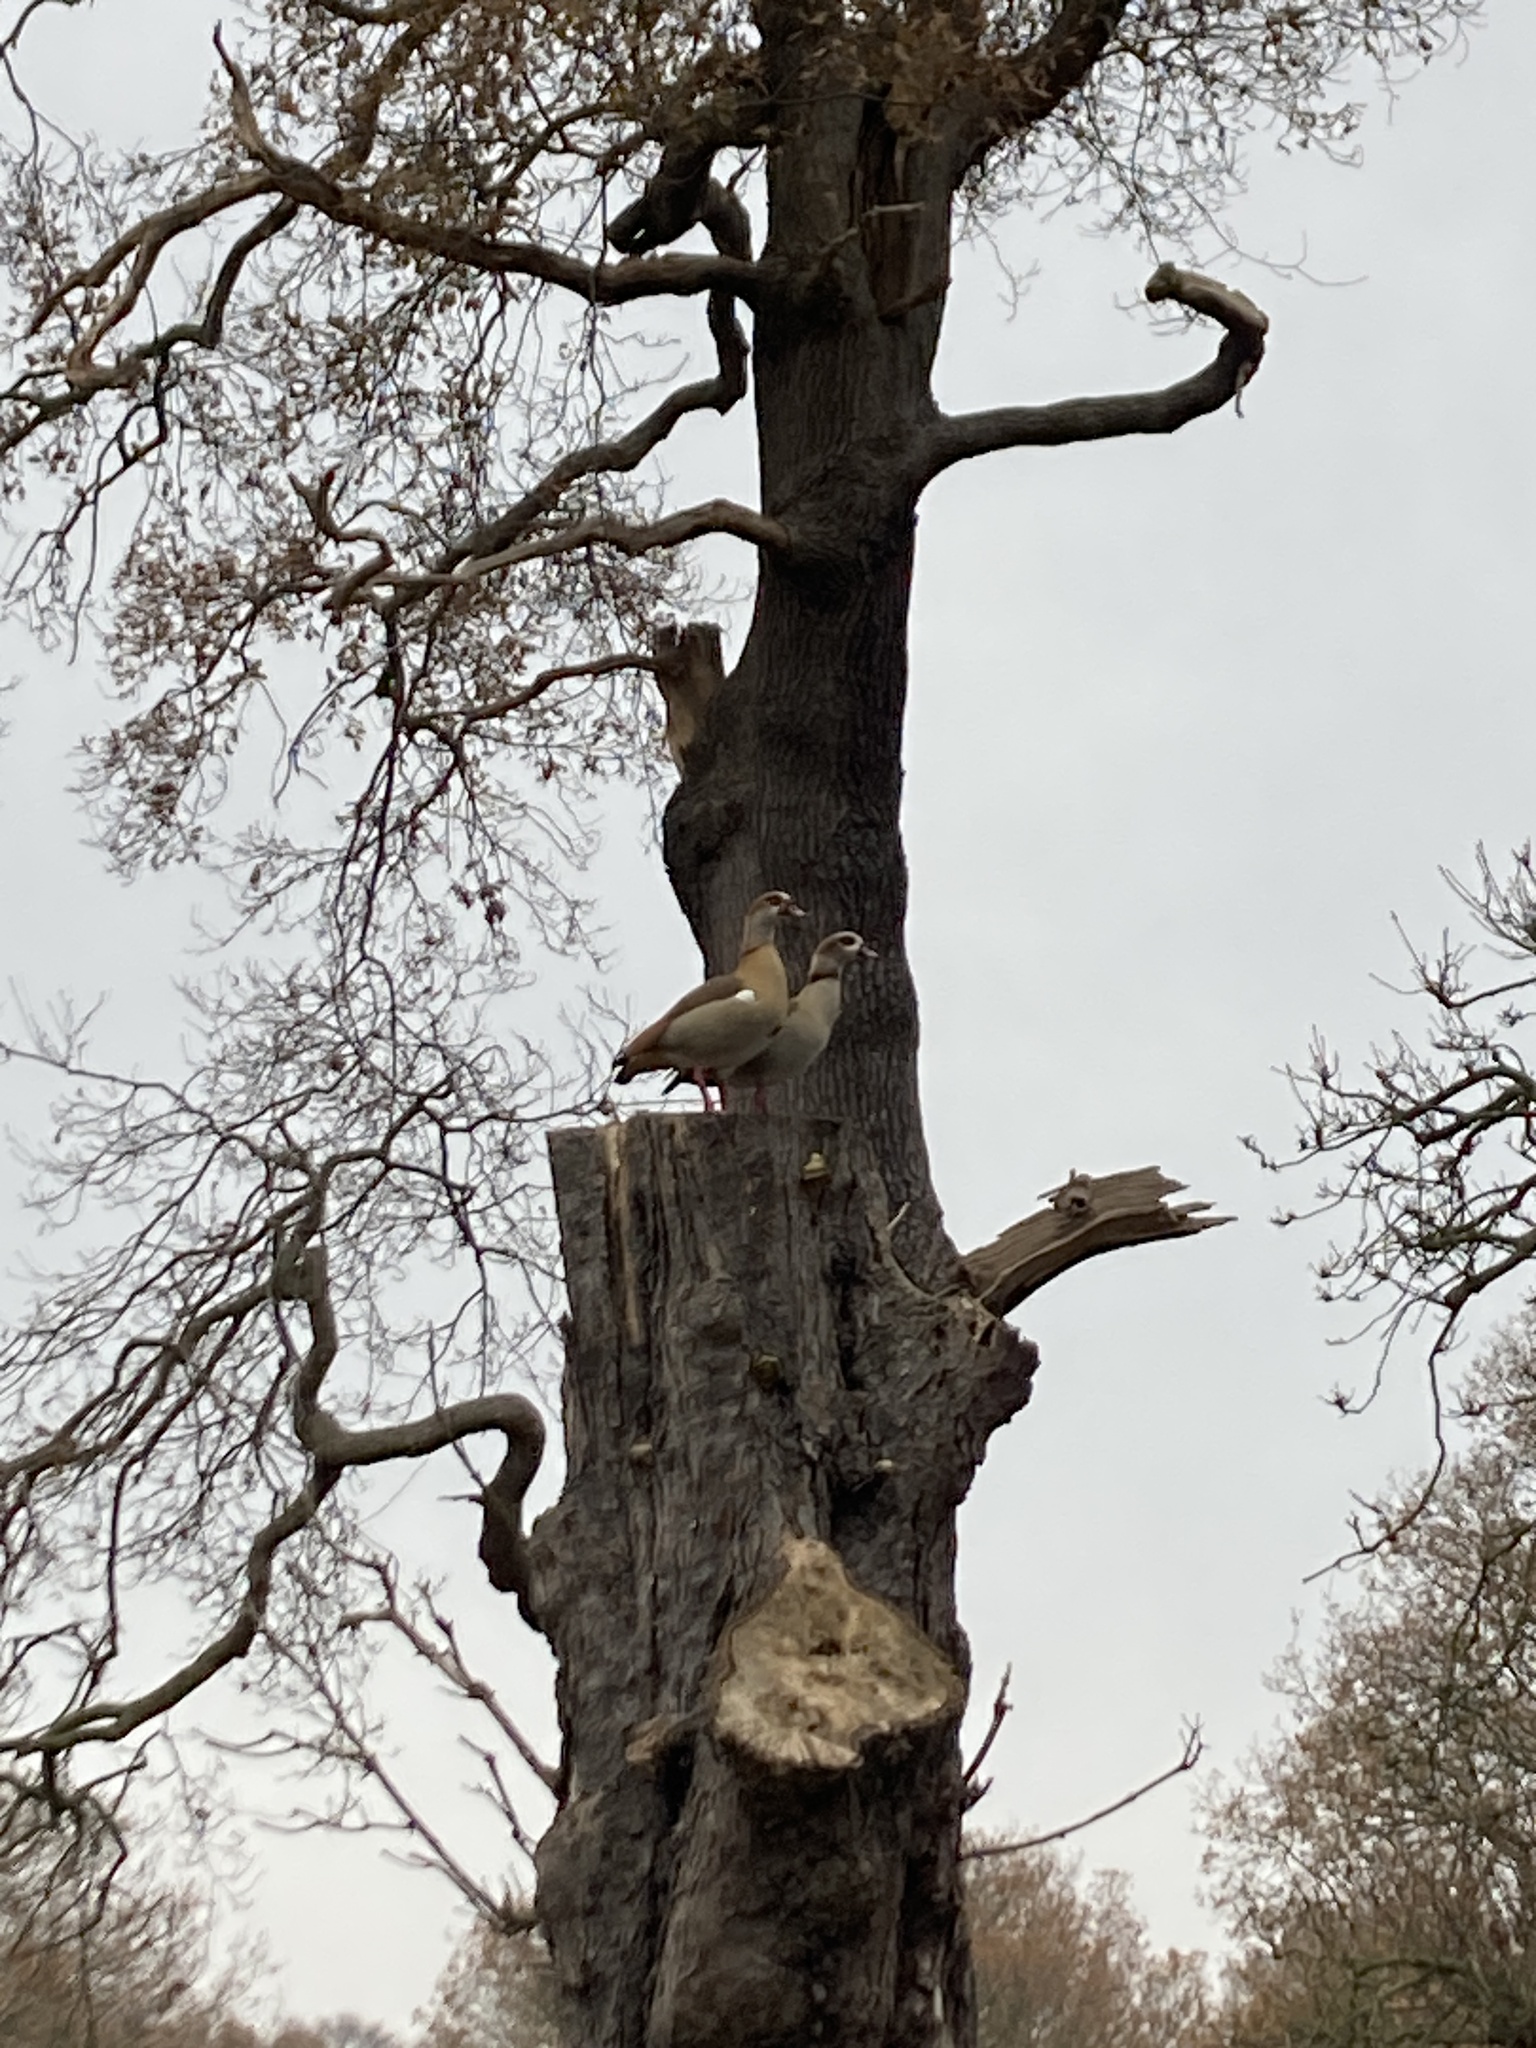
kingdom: Animalia
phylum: Chordata
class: Aves
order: Anseriformes
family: Anatidae
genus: Alopochen
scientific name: Alopochen aegyptiaca
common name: Egyptian goose
